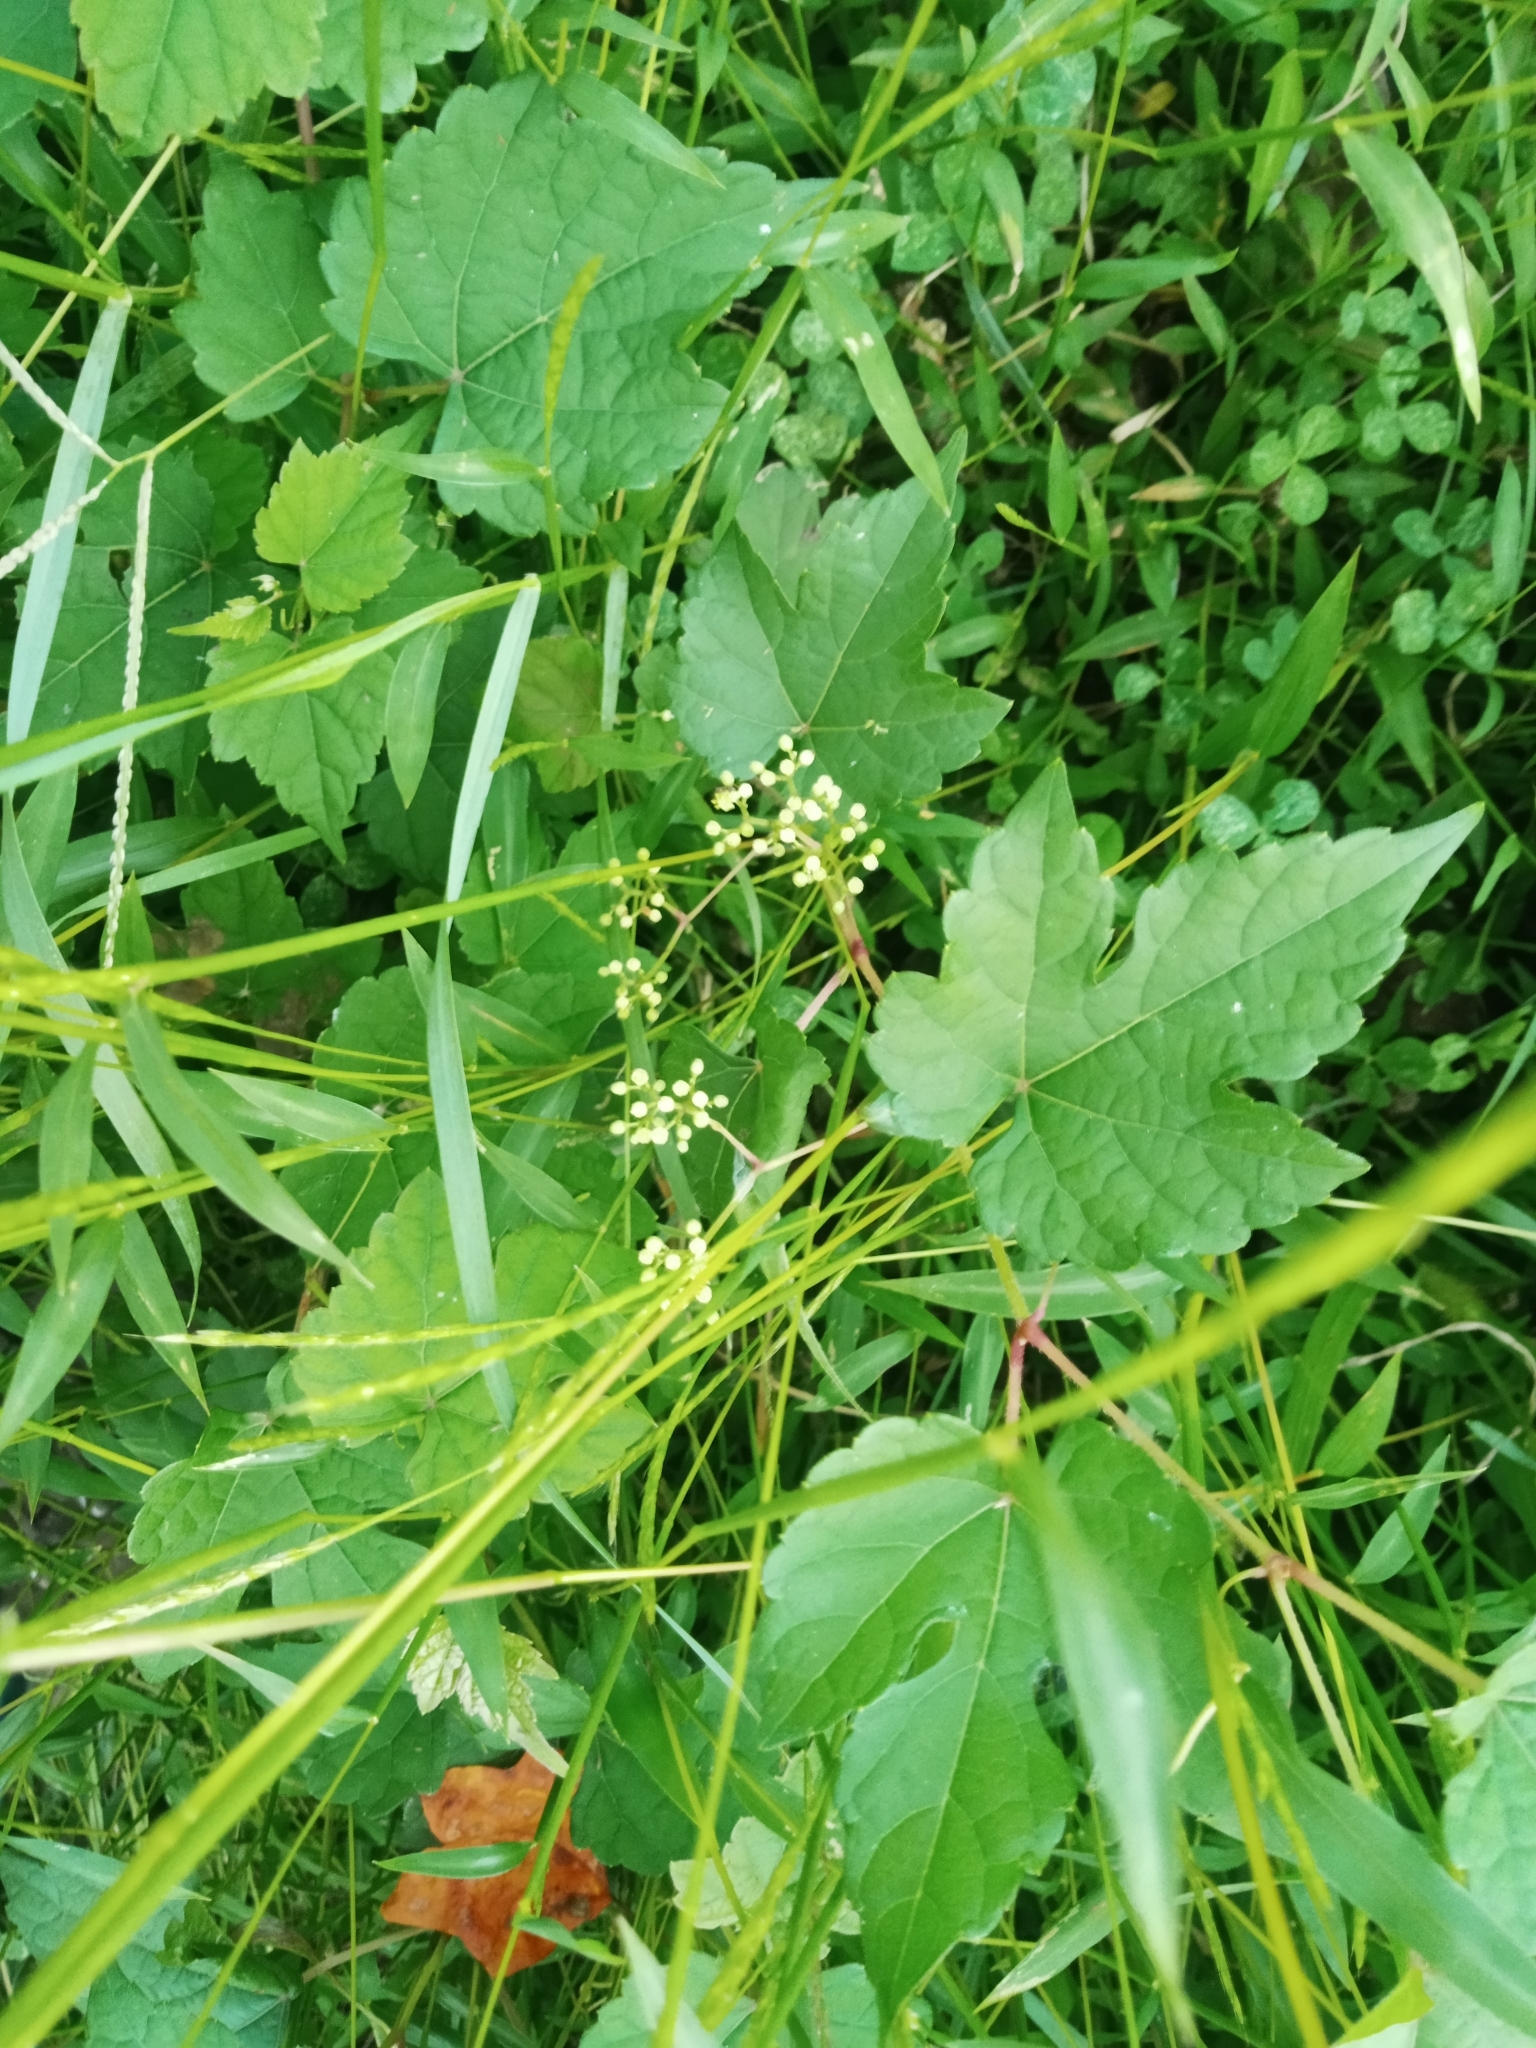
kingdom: Plantae
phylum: Tracheophyta
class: Magnoliopsida
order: Vitales
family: Vitaceae
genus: Ampelopsis
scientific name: Ampelopsis glandulosa
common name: Amur peppervine
